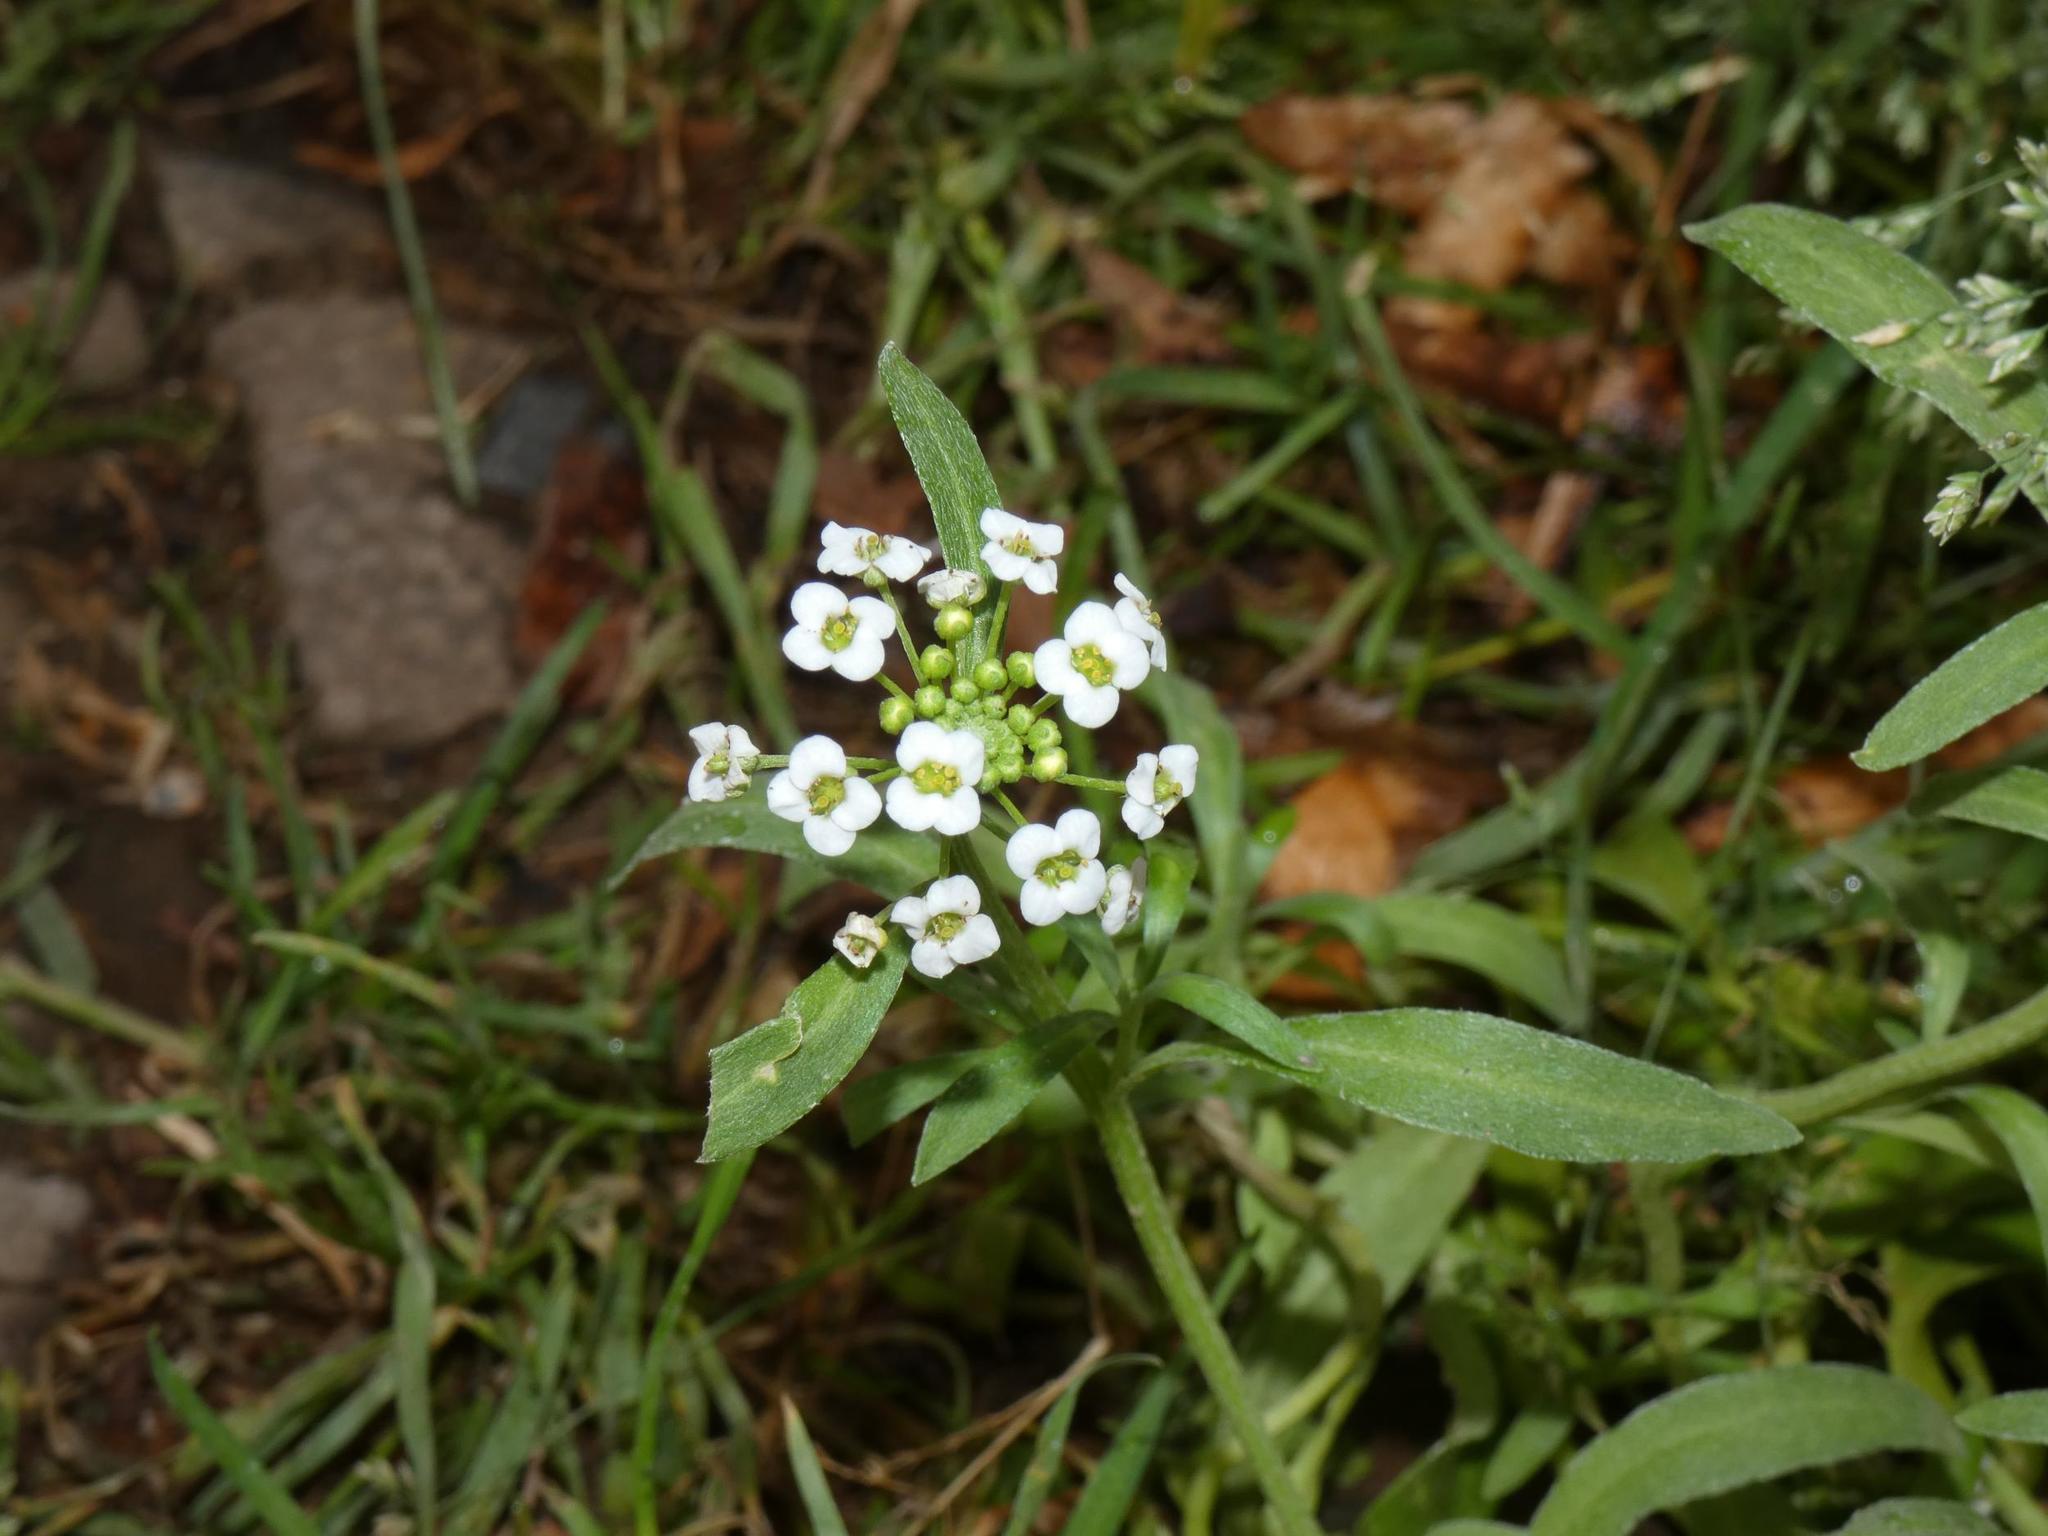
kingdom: Plantae
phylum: Tracheophyta
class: Magnoliopsida
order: Brassicales
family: Brassicaceae
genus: Lobularia
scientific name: Lobularia maritima
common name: Sweet alison
